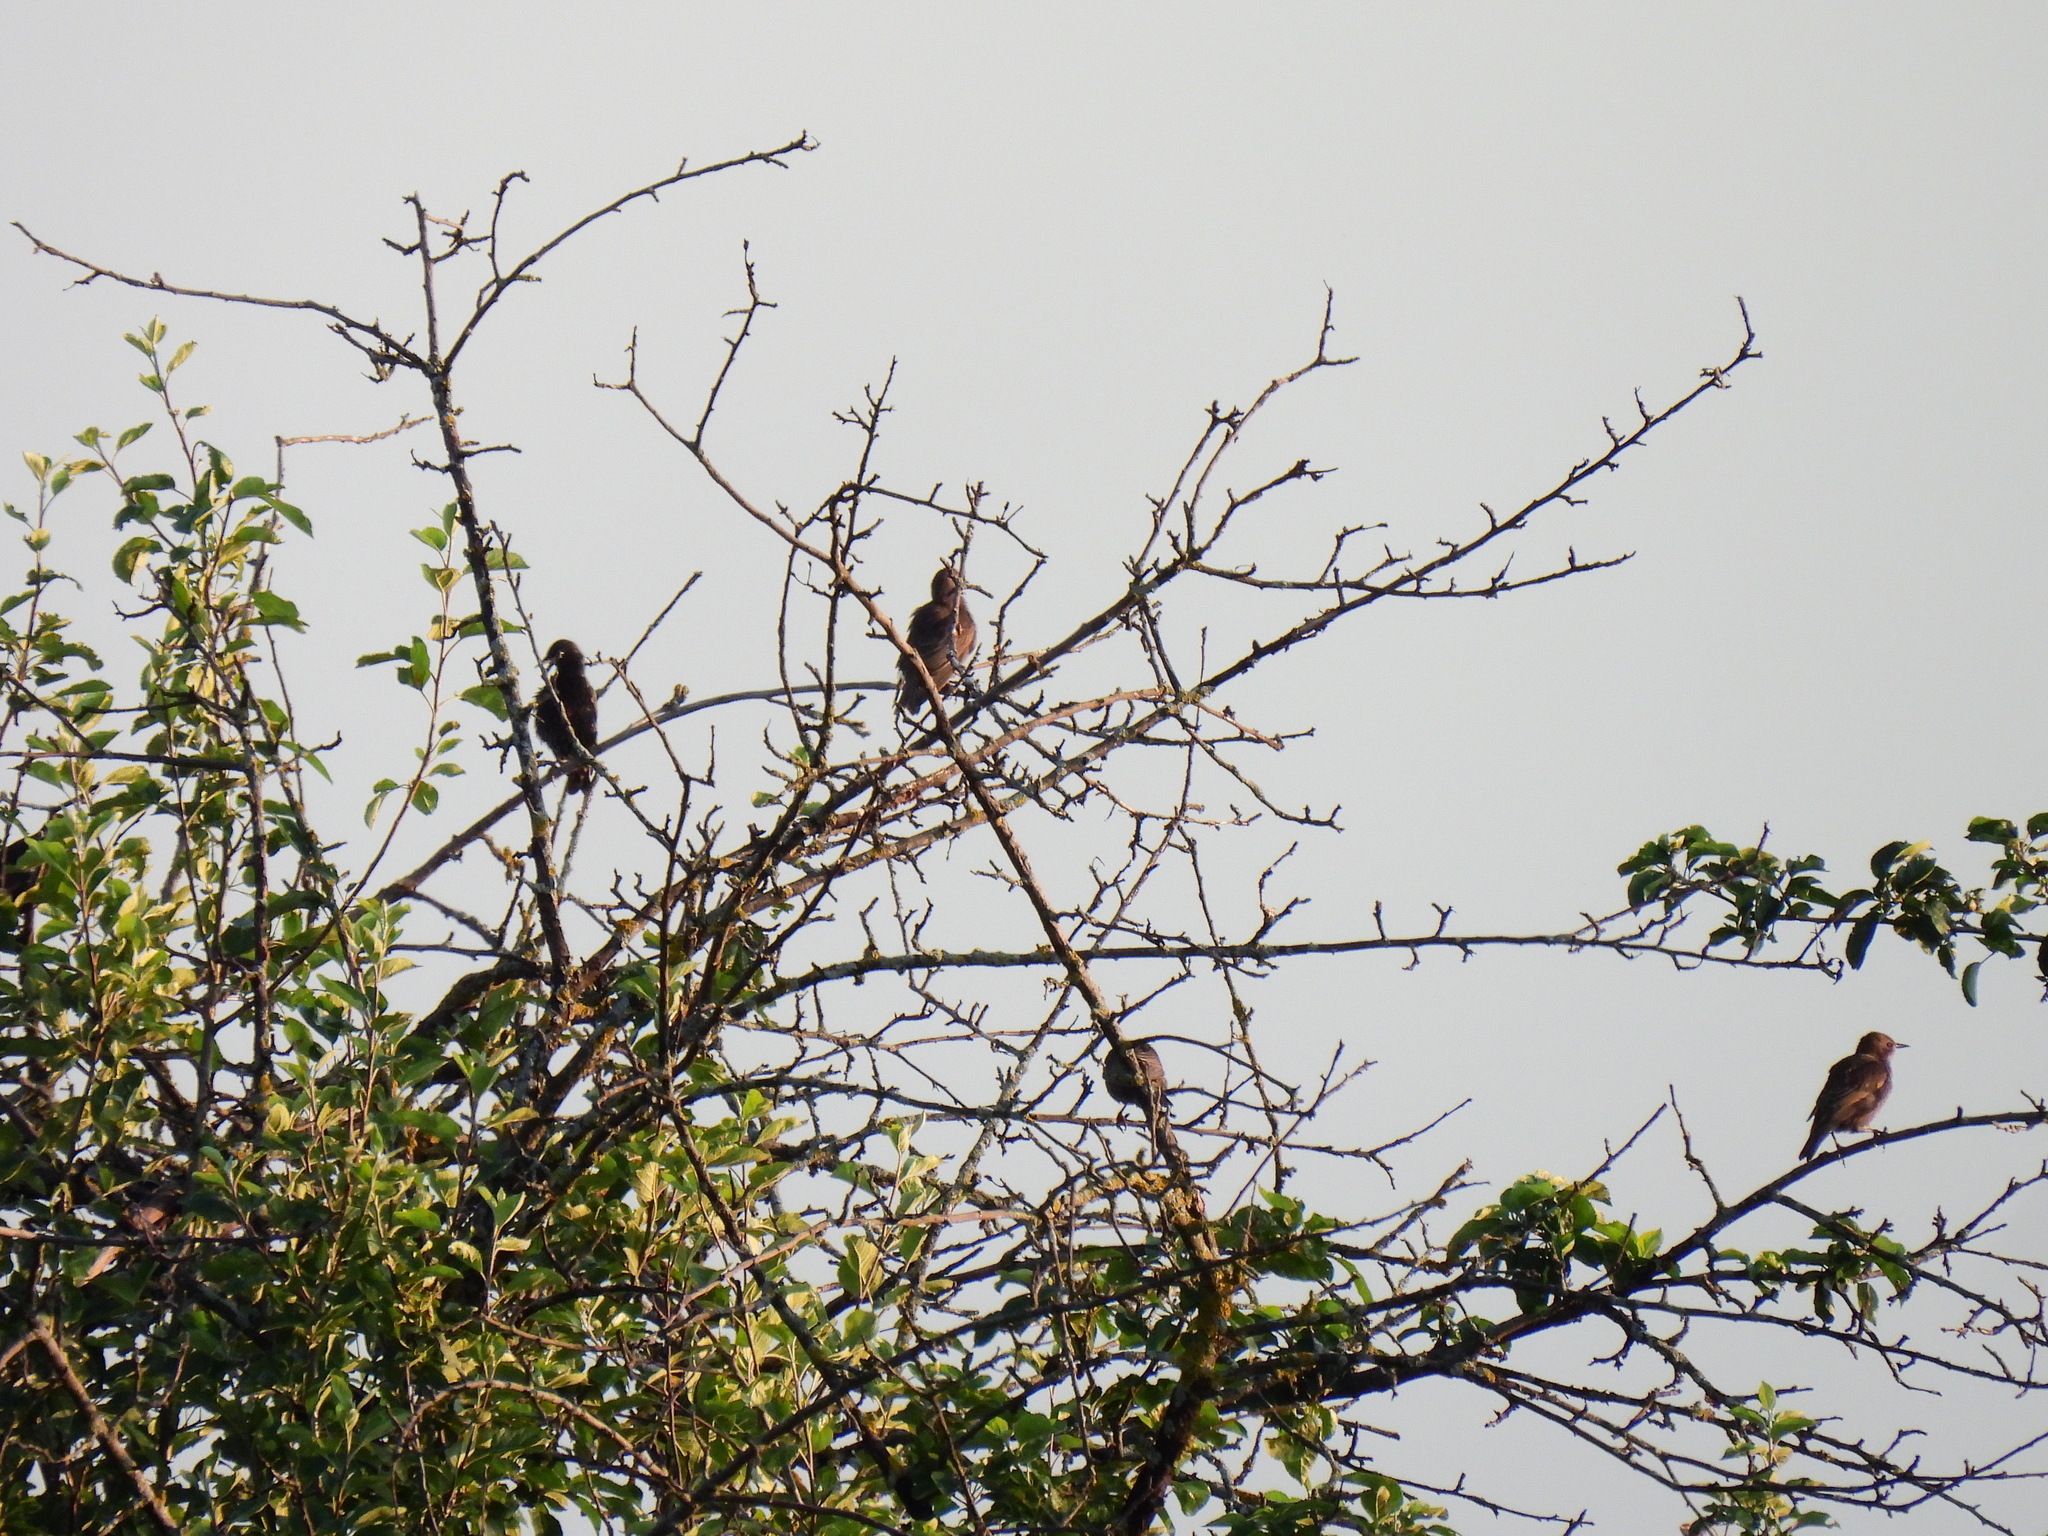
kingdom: Animalia
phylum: Chordata
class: Aves
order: Passeriformes
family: Sturnidae
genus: Sturnus
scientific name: Sturnus vulgaris
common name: Common starling
